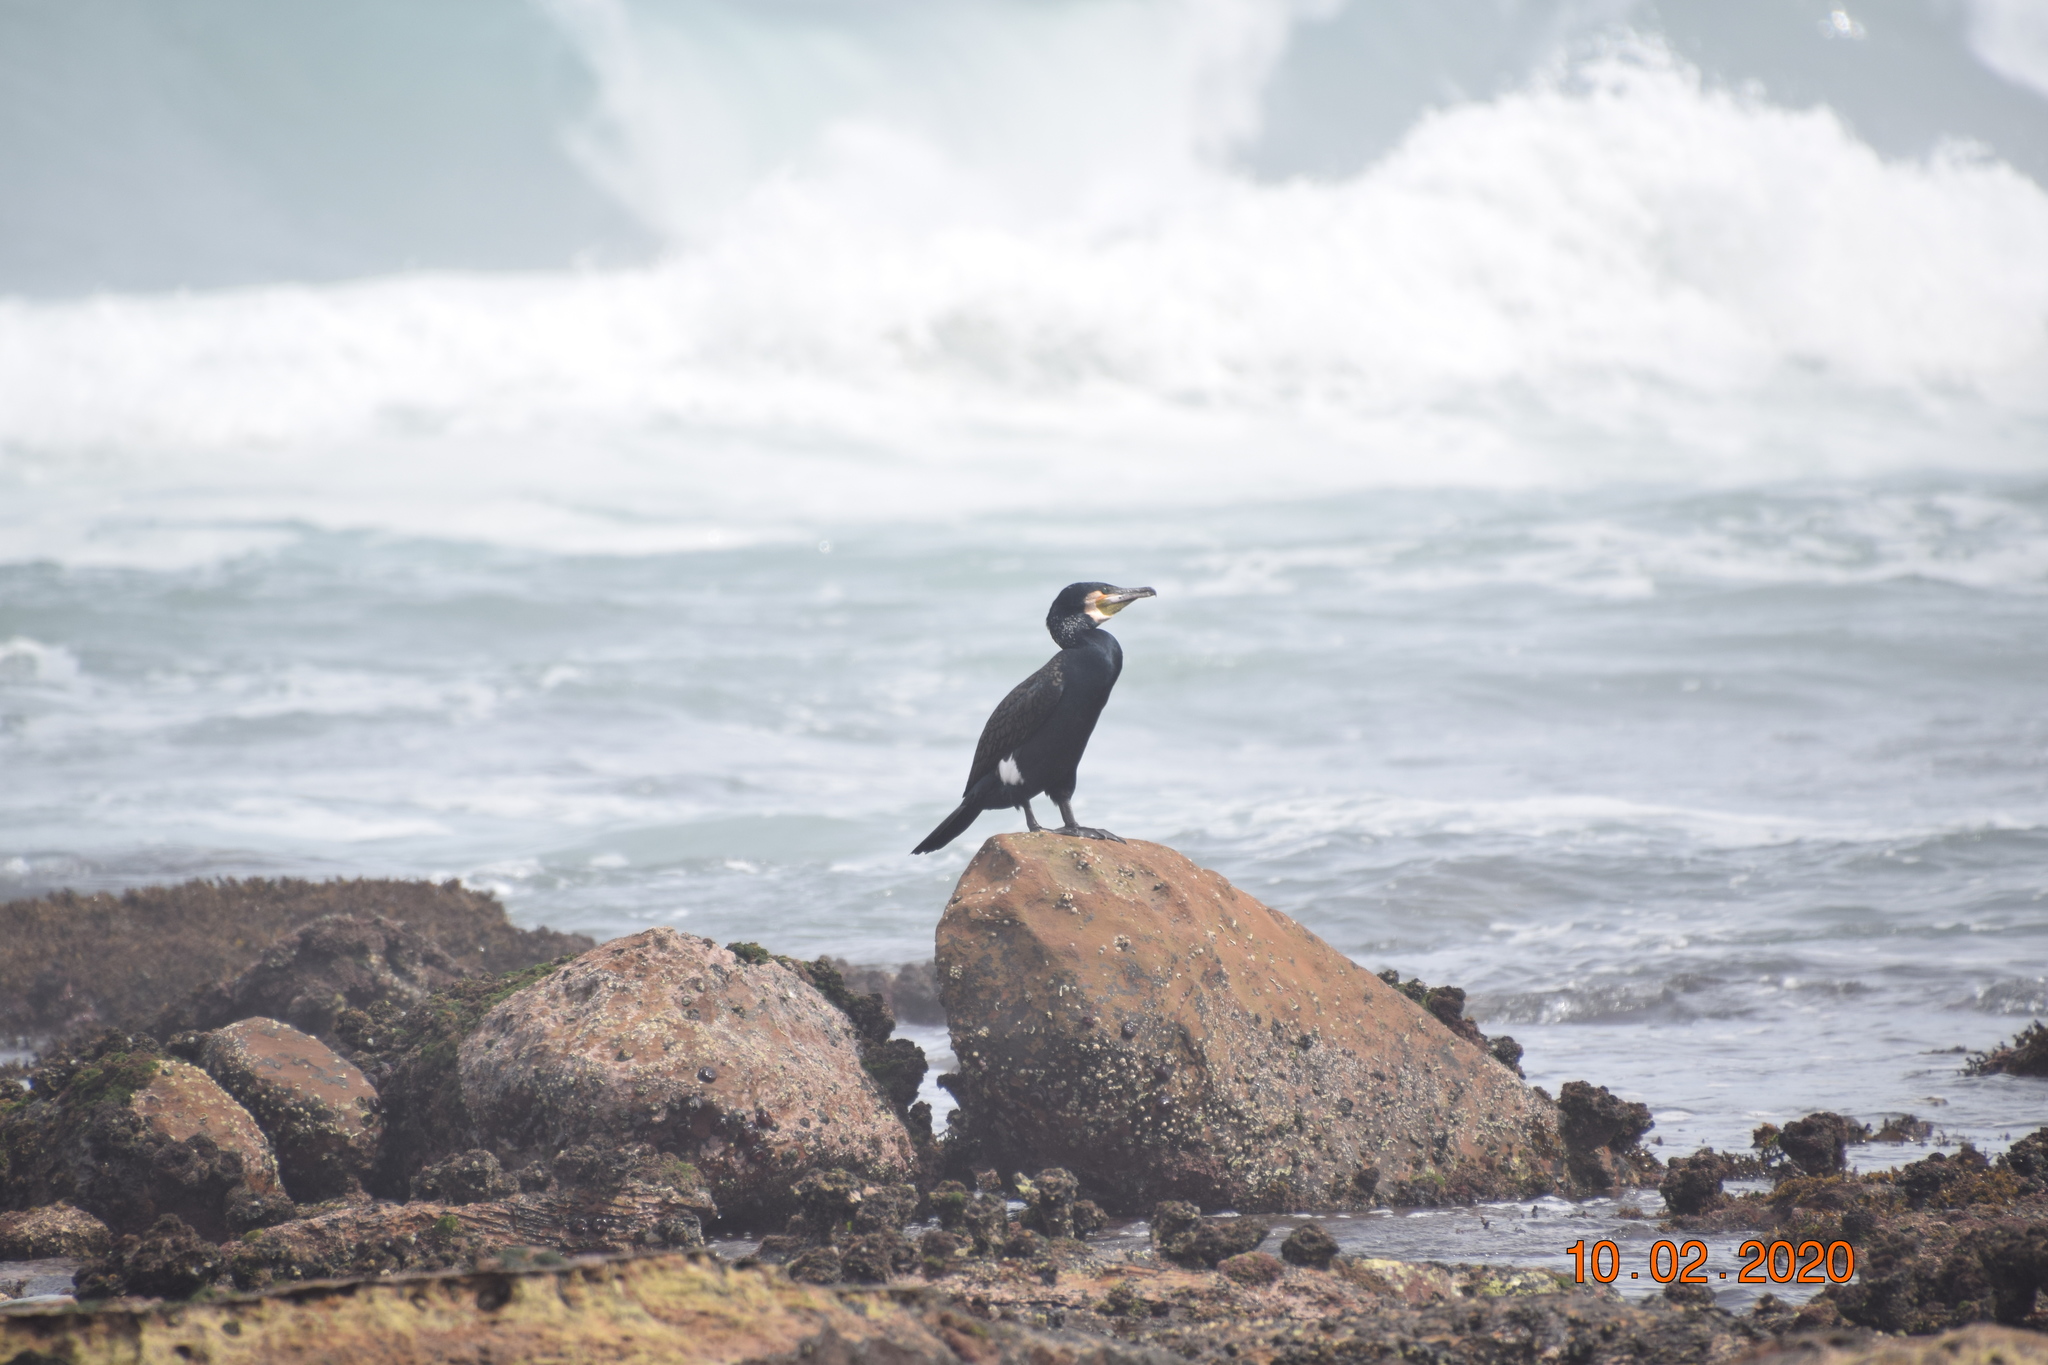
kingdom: Animalia
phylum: Chordata
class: Aves
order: Suliformes
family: Phalacrocoracidae
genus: Phalacrocorax
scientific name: Phalacrocorax carbo
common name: Great cormorant
